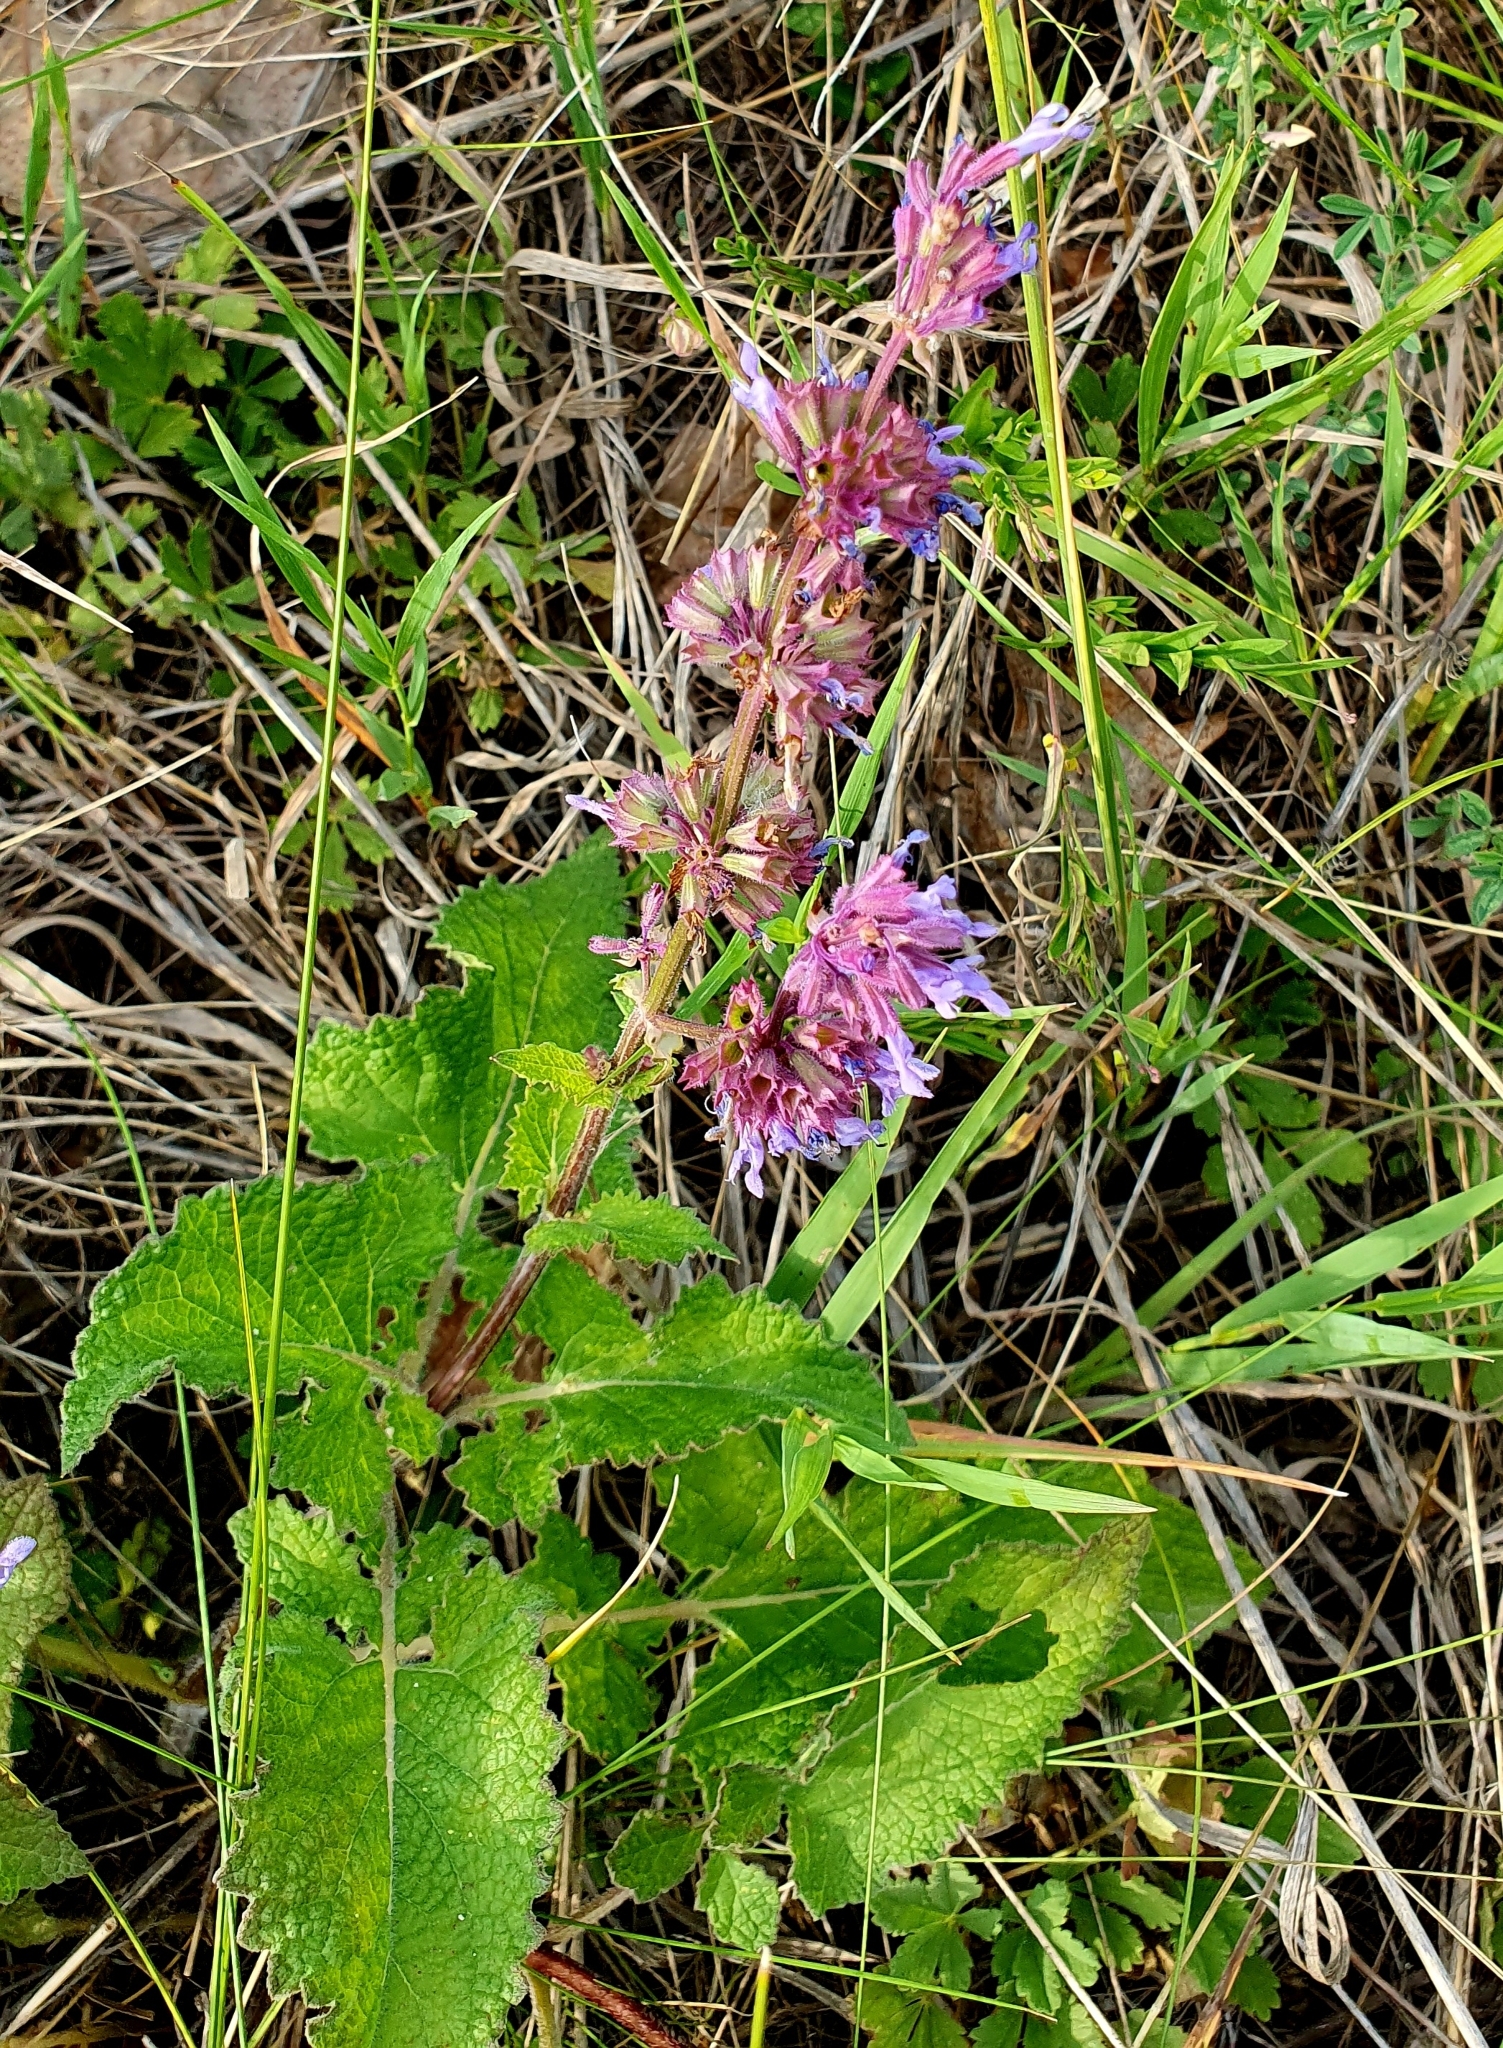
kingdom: Plantae
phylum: Tracheophyta
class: Magnoliopsida
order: Lamiales
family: Lamiaceae
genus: Salvia
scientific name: Salvia verticillata
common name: Whorled clary
